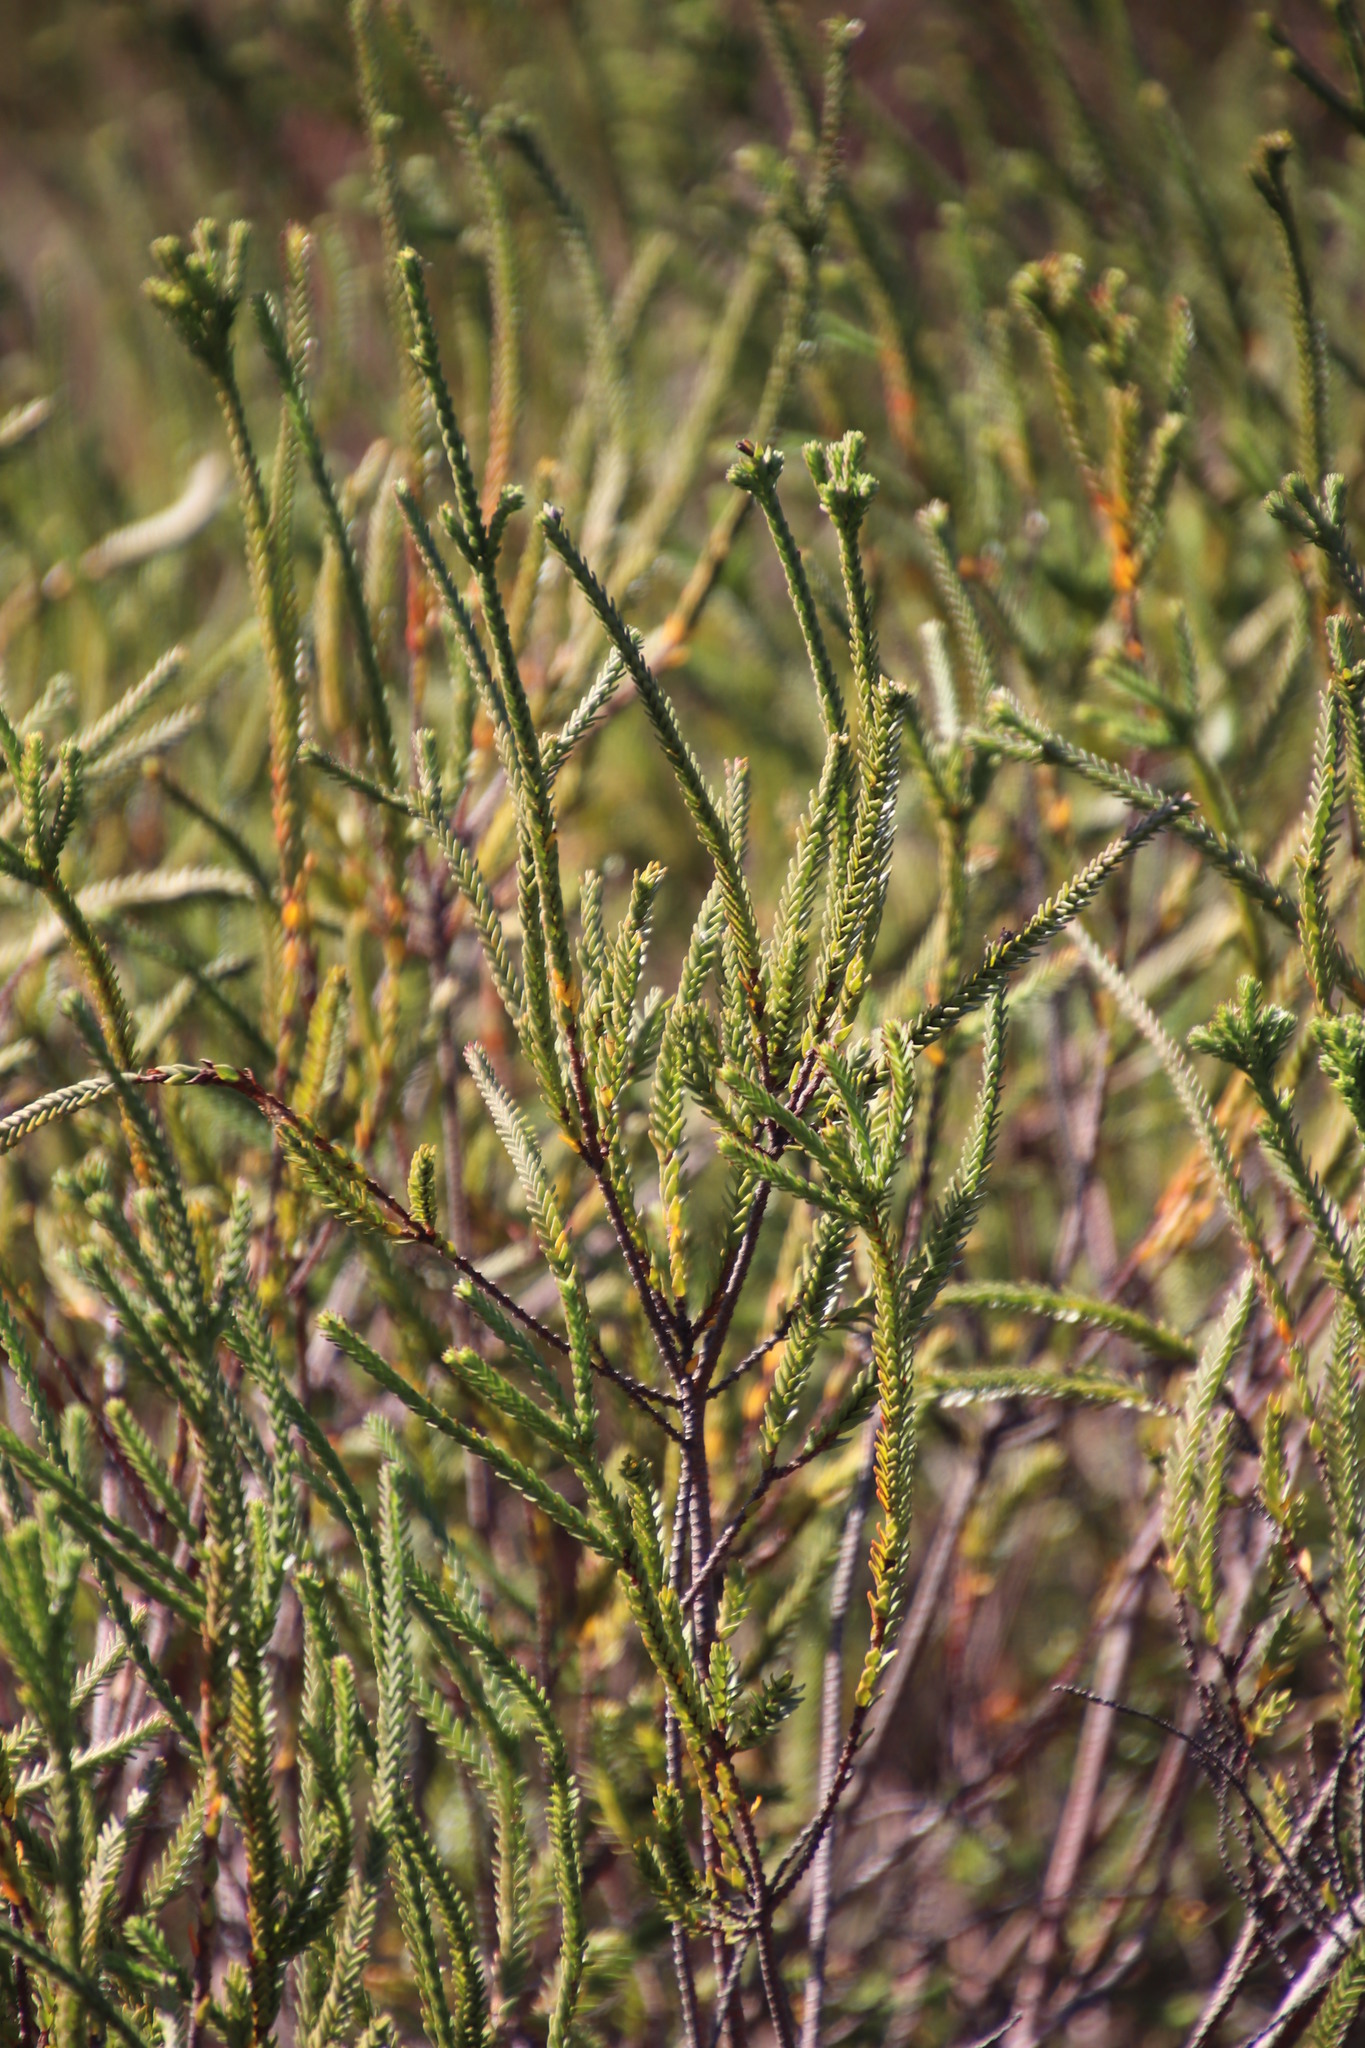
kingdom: Plantae
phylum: Tracheophyta
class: Magnoliopsida
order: Malvales
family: Thymelaeaceae
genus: Struthiola
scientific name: Struthiola striata
